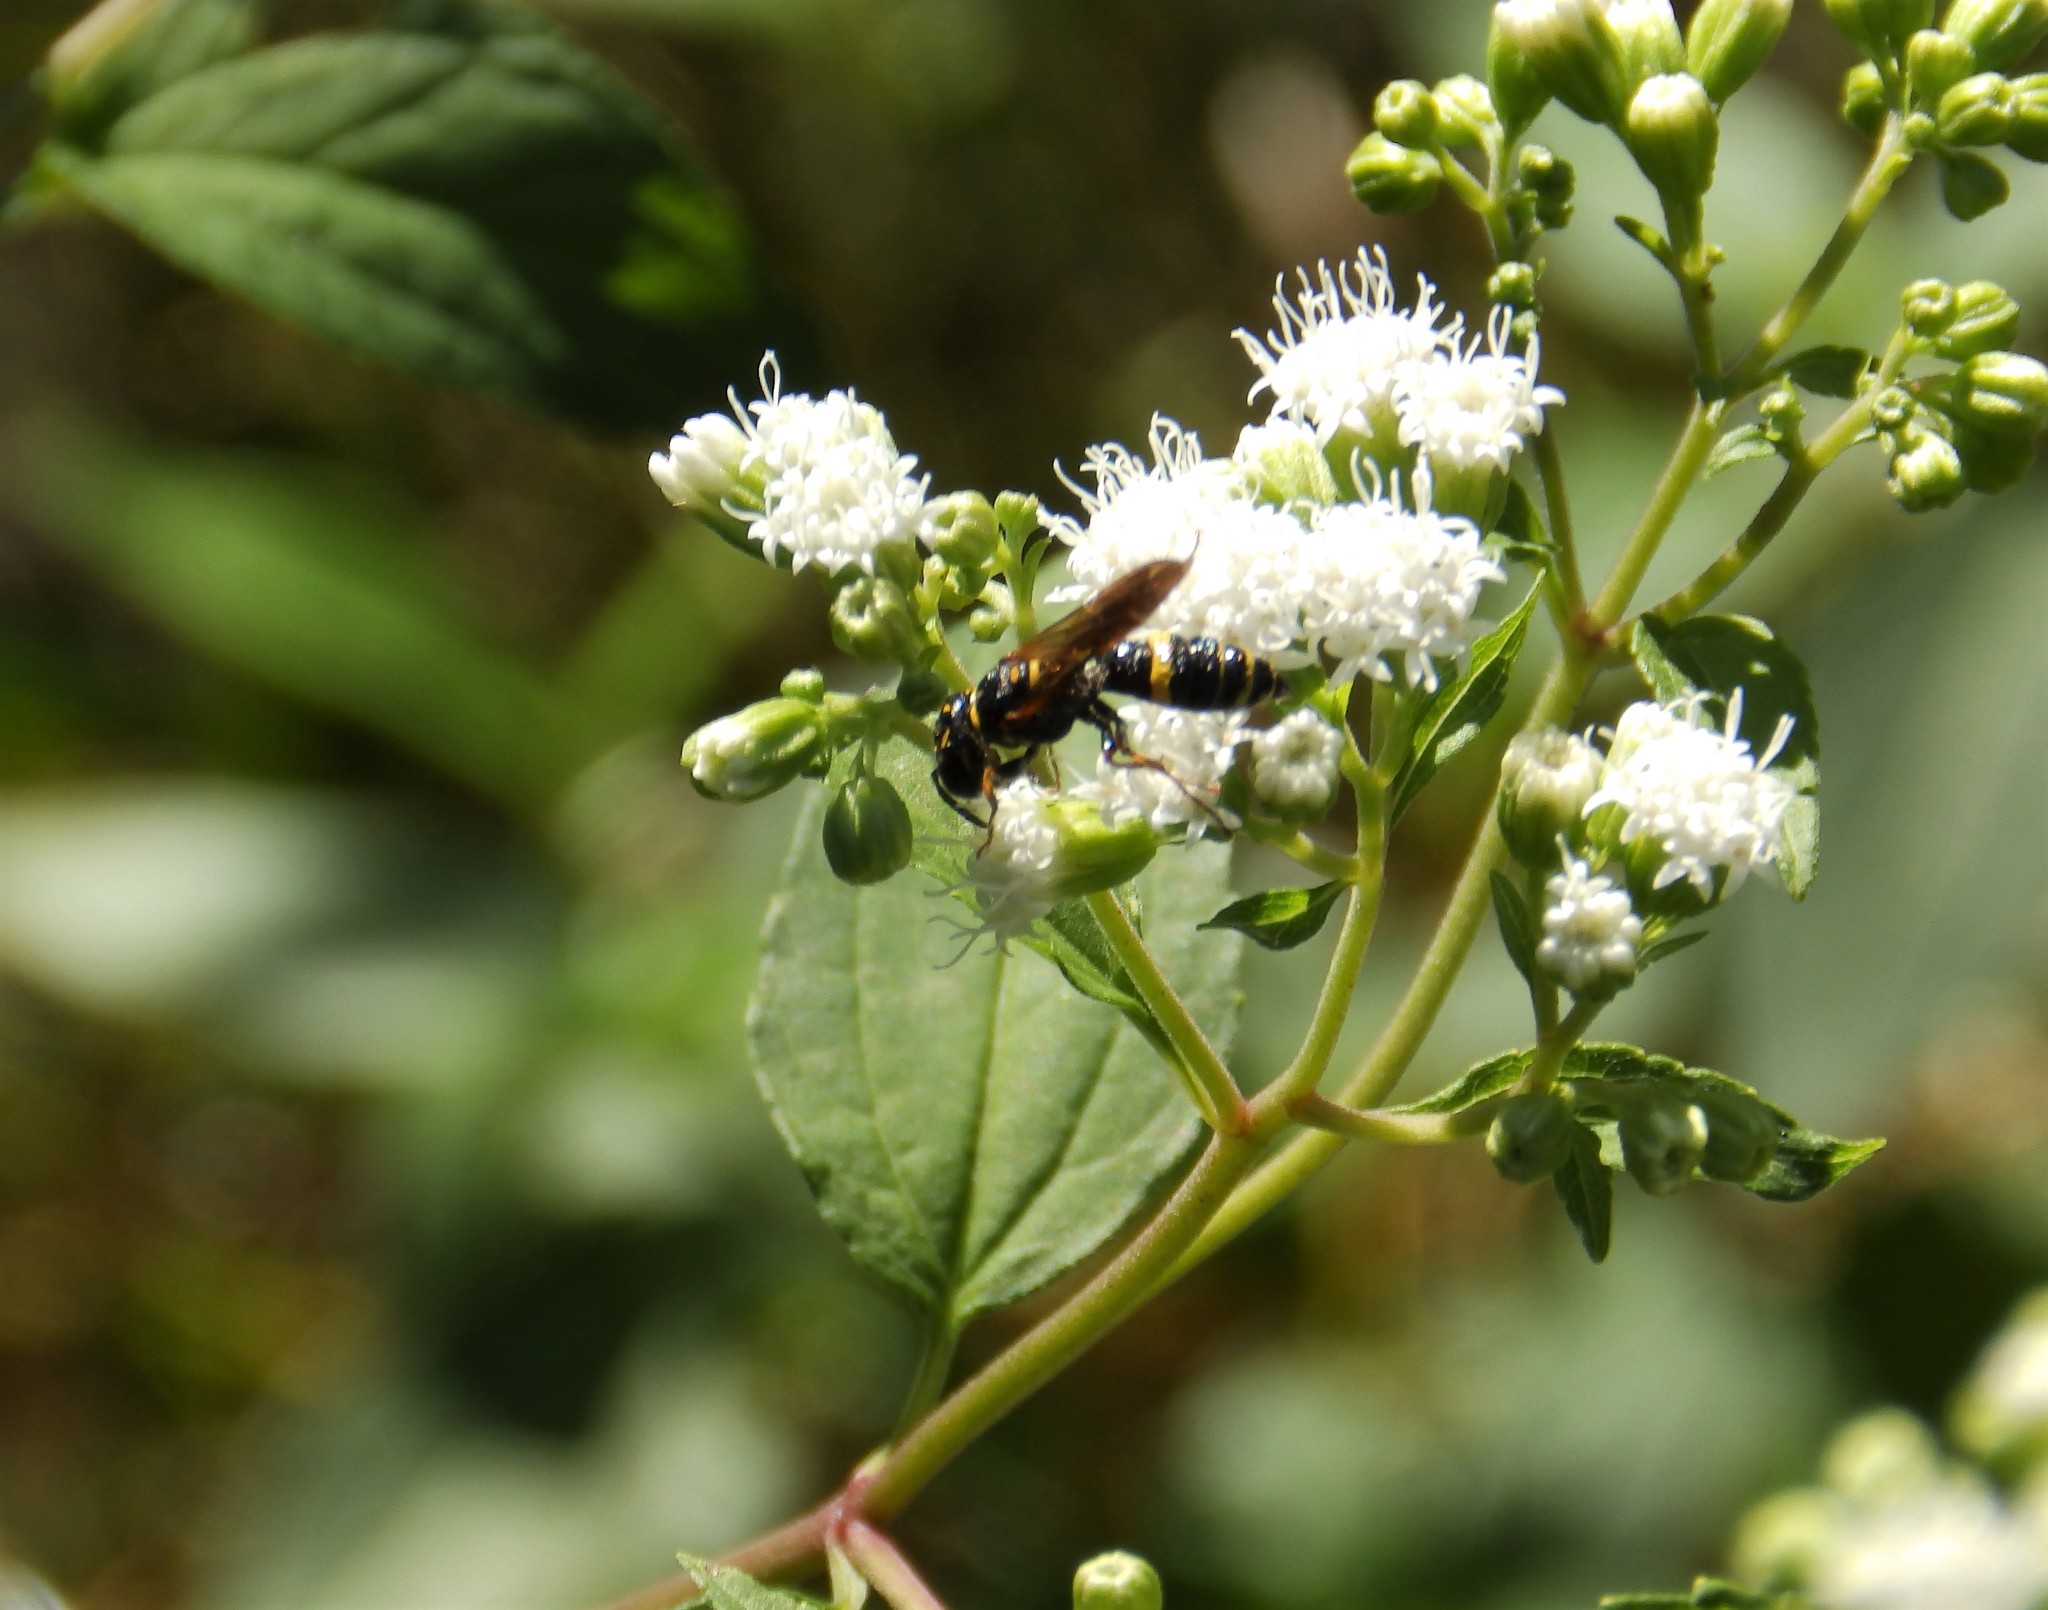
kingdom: Animalia
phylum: Arthropoda
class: Insecta
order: Hymenoptera
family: Crabronidae
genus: Philanthus
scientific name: Philanthus gibbosus
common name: Humped beewolf
